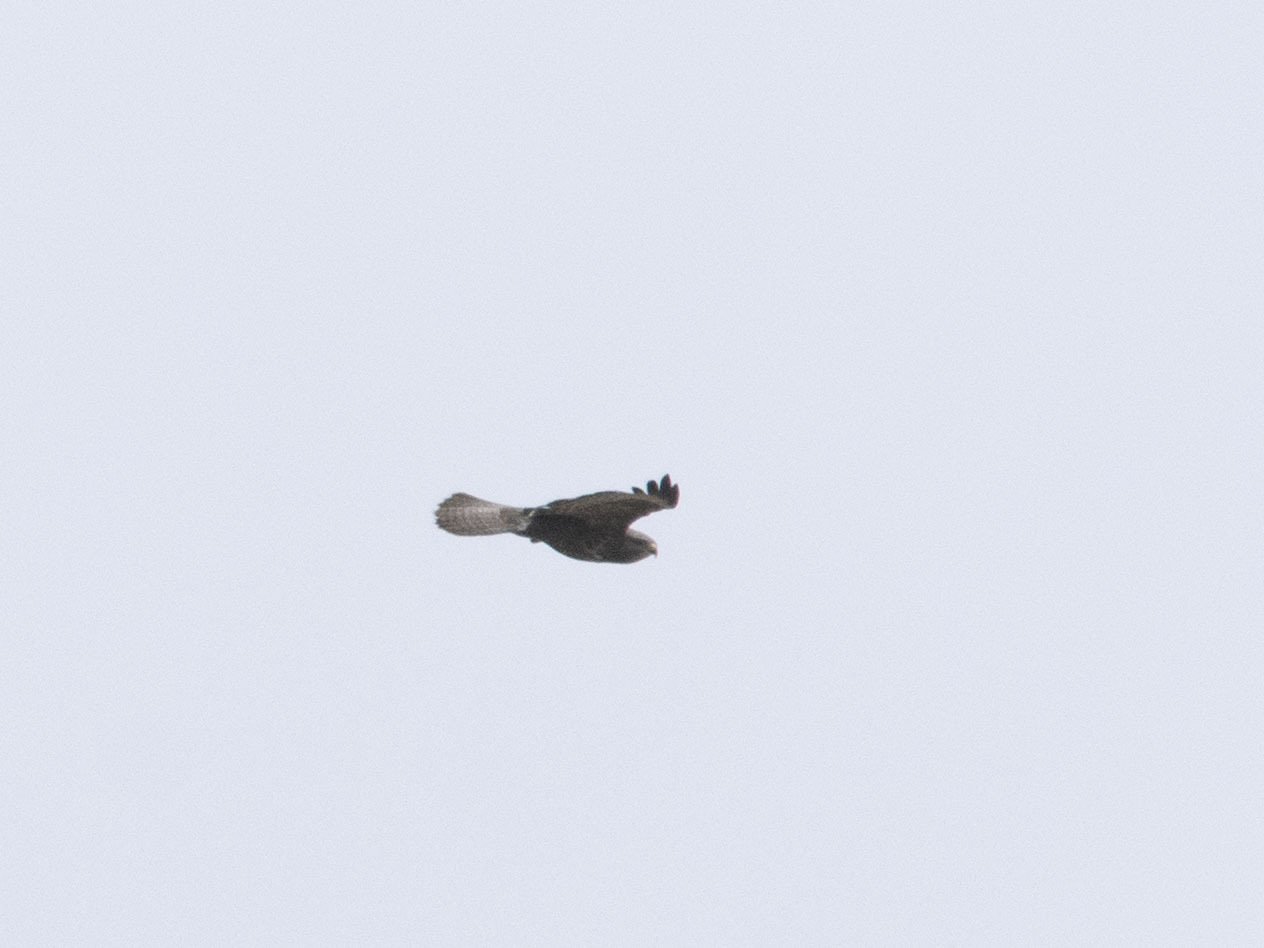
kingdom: Animalia
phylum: Chordata
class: Aves
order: Accipitriformes
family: Accipitridae
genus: Buteo
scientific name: Buteo buteo
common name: Common buzzard
